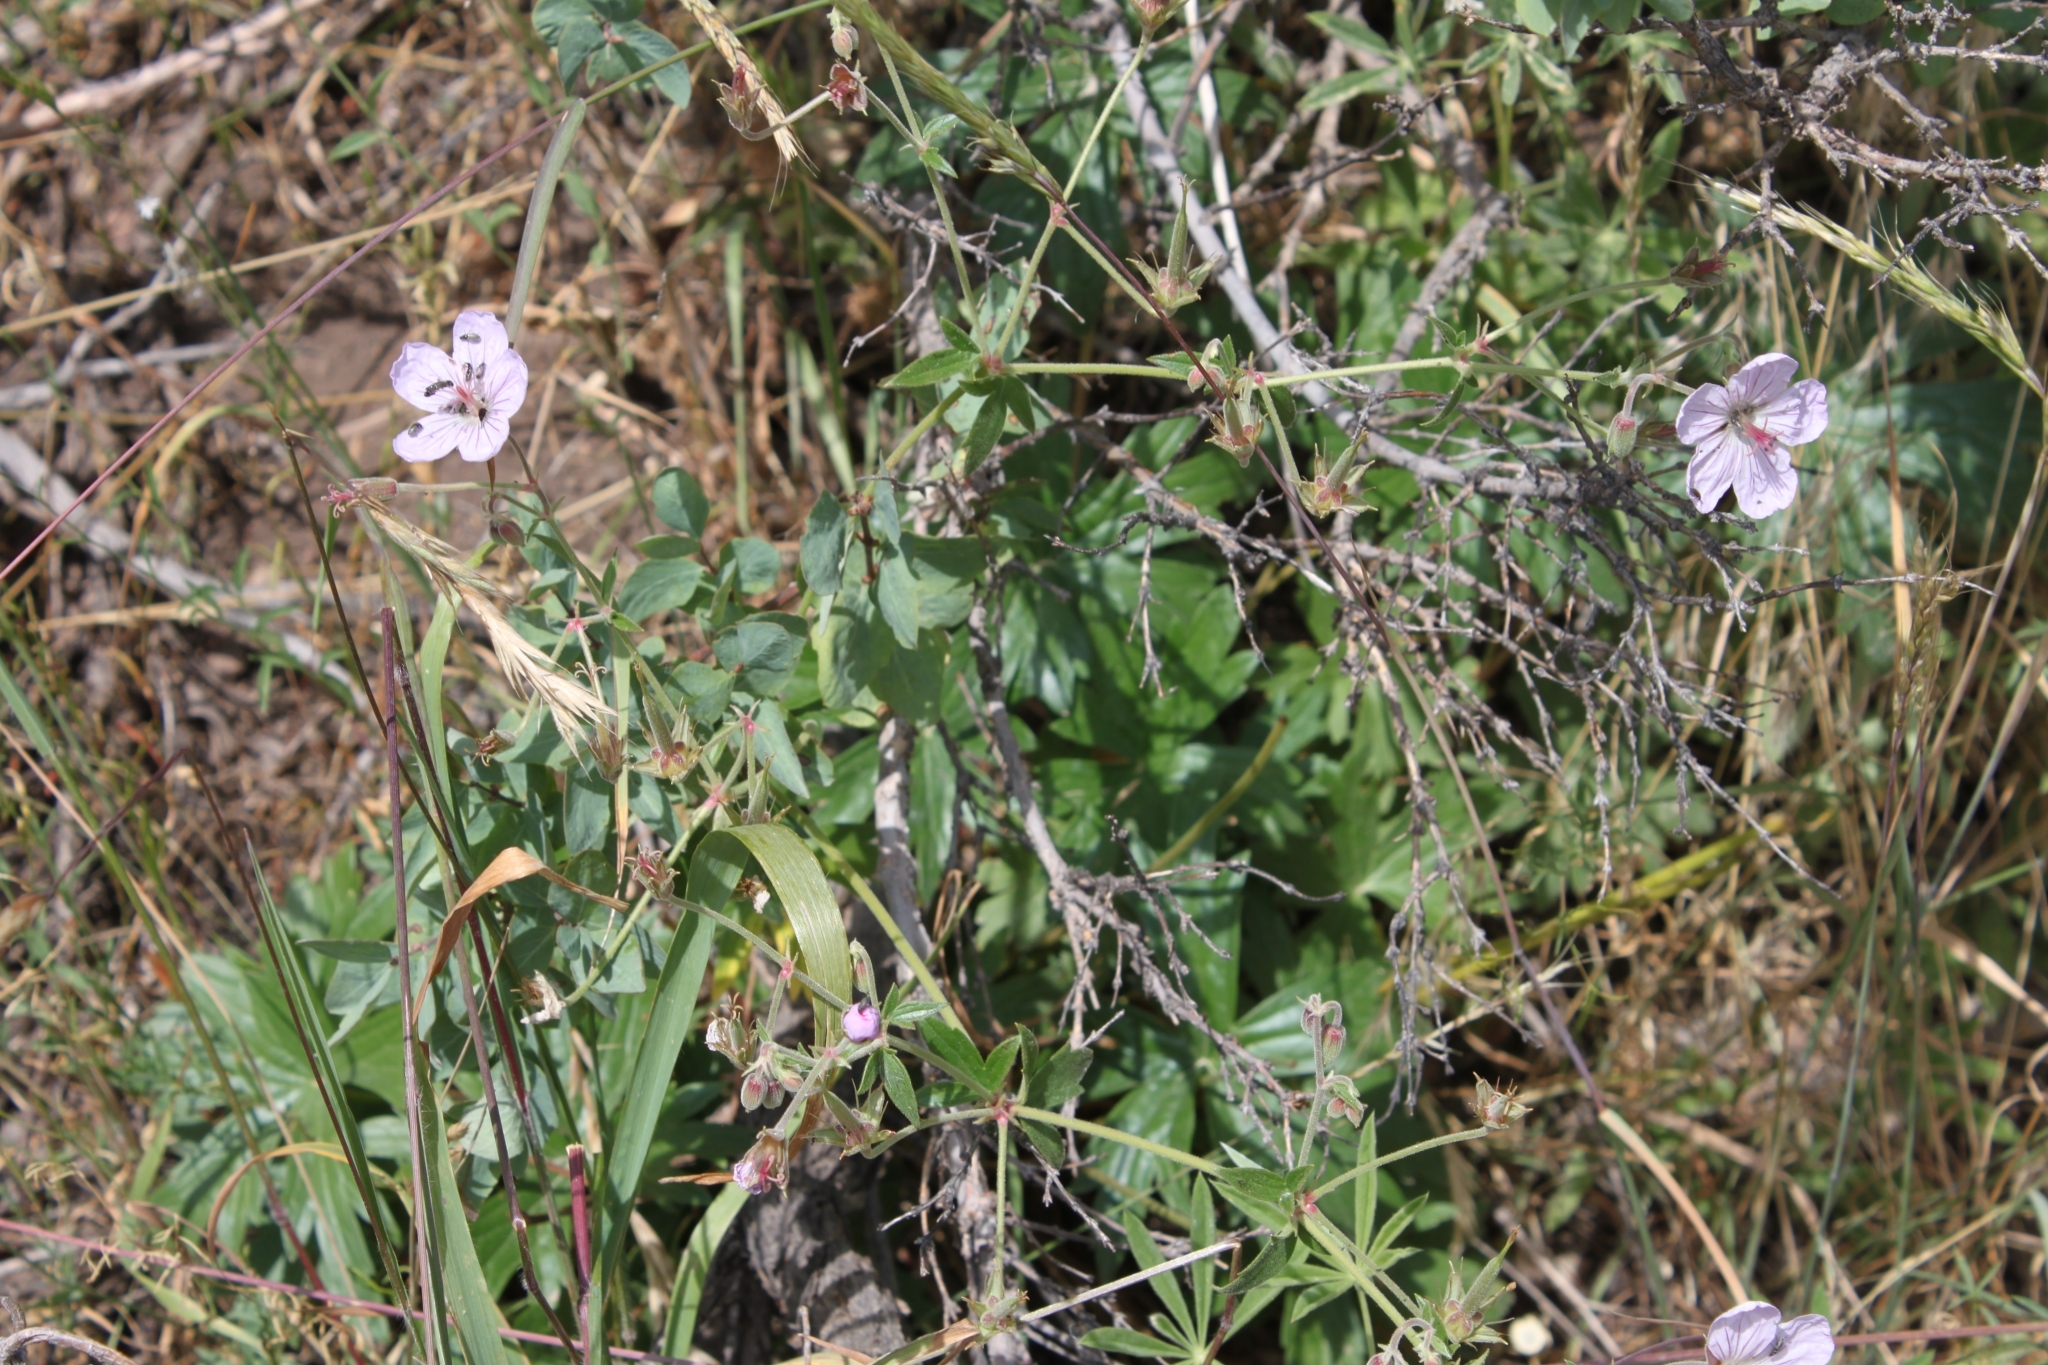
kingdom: Plantae
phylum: Tracheophyta
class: Magnoliopsida
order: Geraniales
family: Geraniaceae
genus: Geranium
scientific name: Geranium richardsonii
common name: Richardson's crane's-bill
